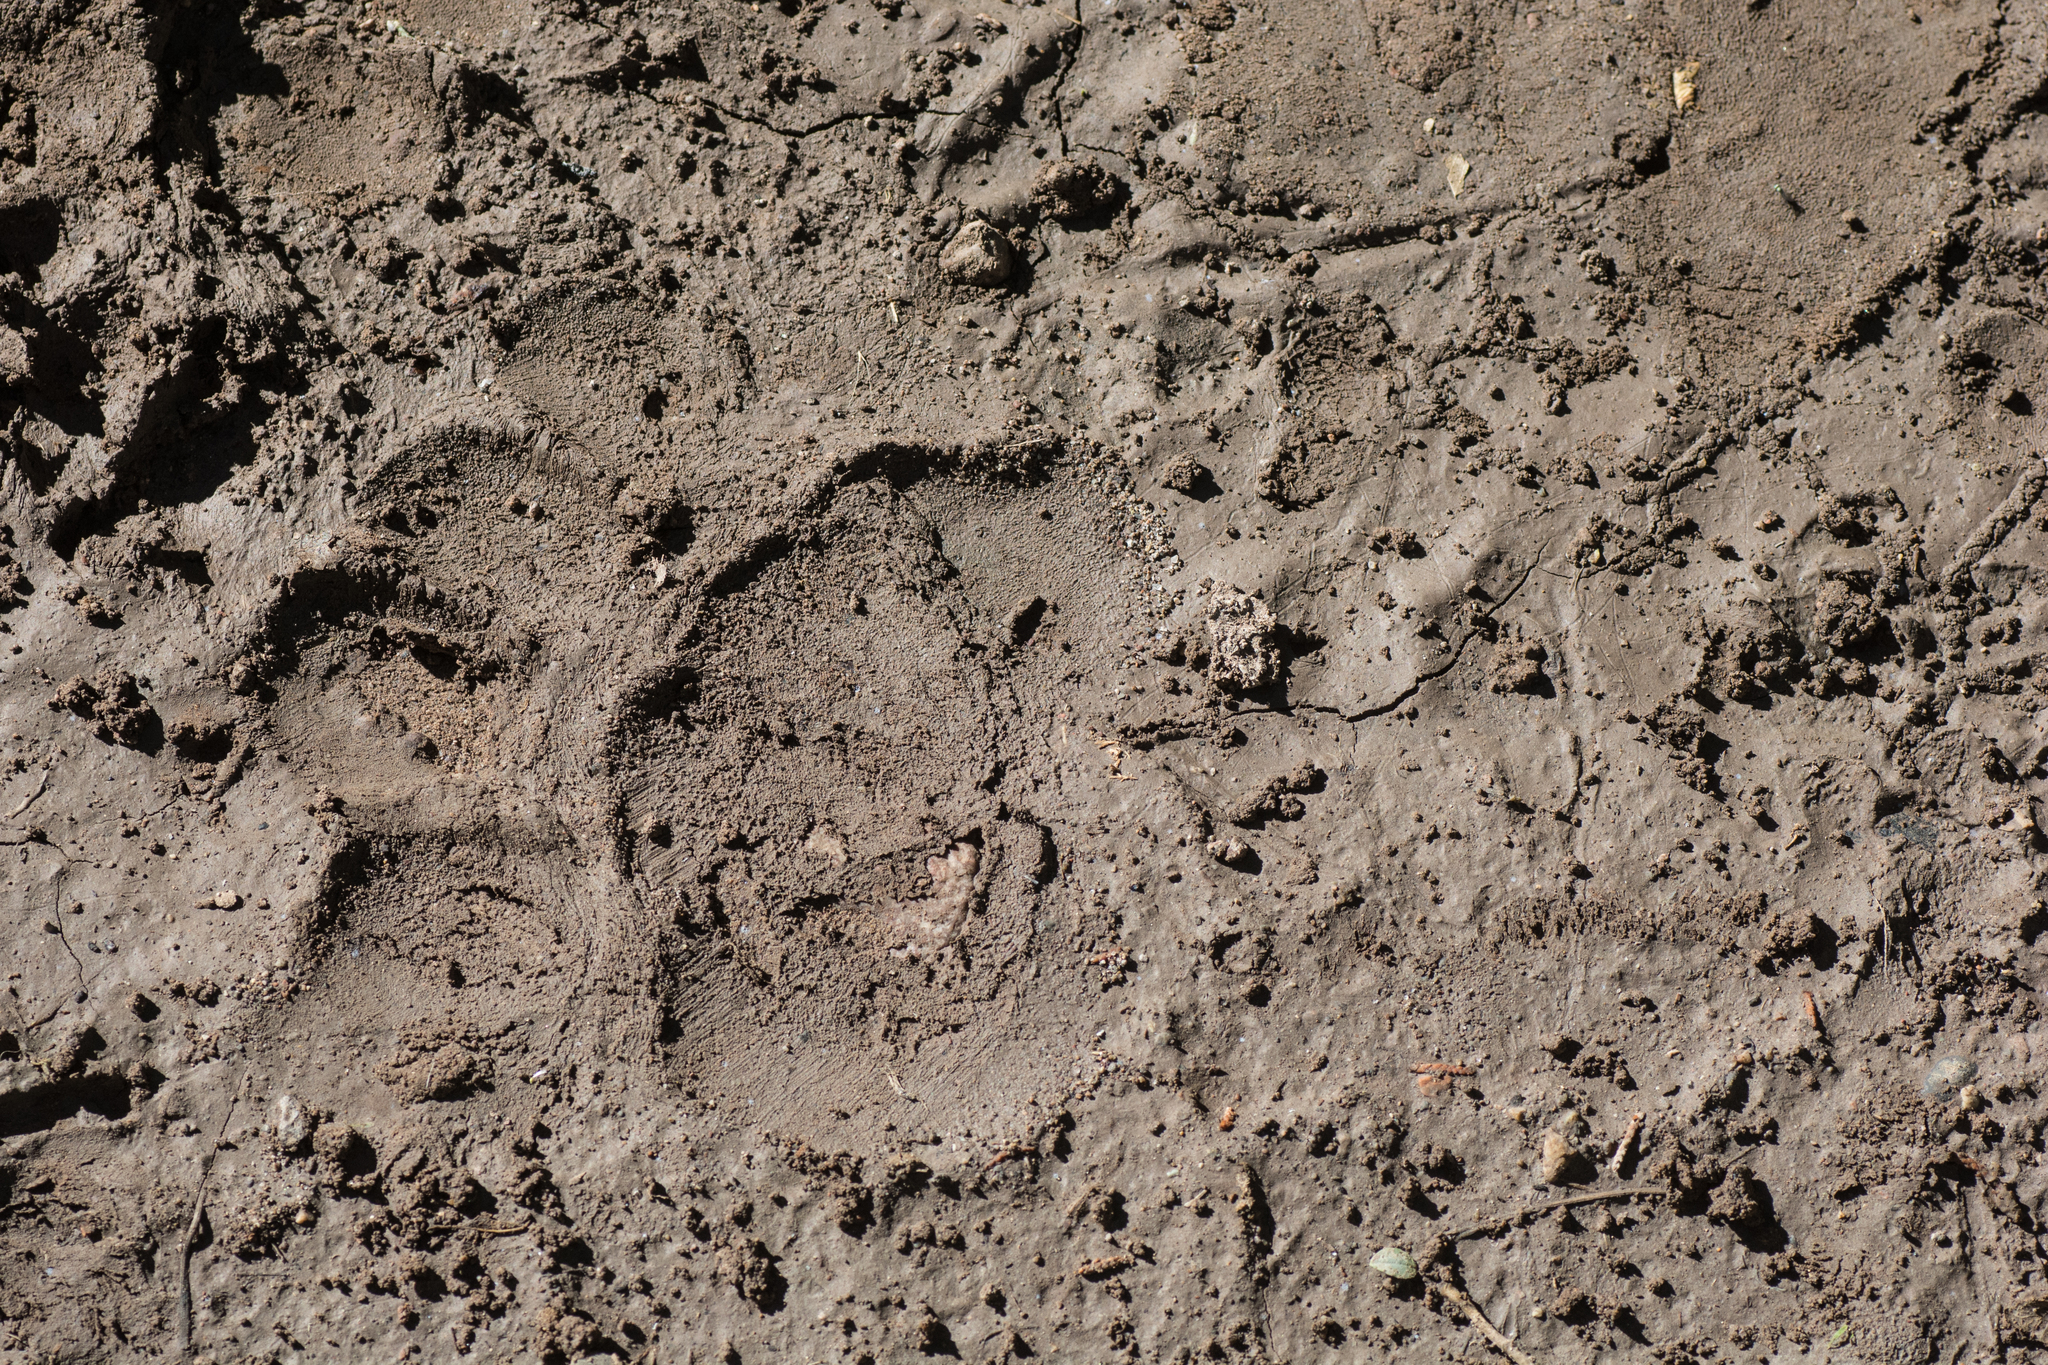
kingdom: Animalia
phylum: Chordata
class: Mammalia
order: Carnivora
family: Ursidae
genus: Ursus
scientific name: Ursus americanus
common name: American black bear
